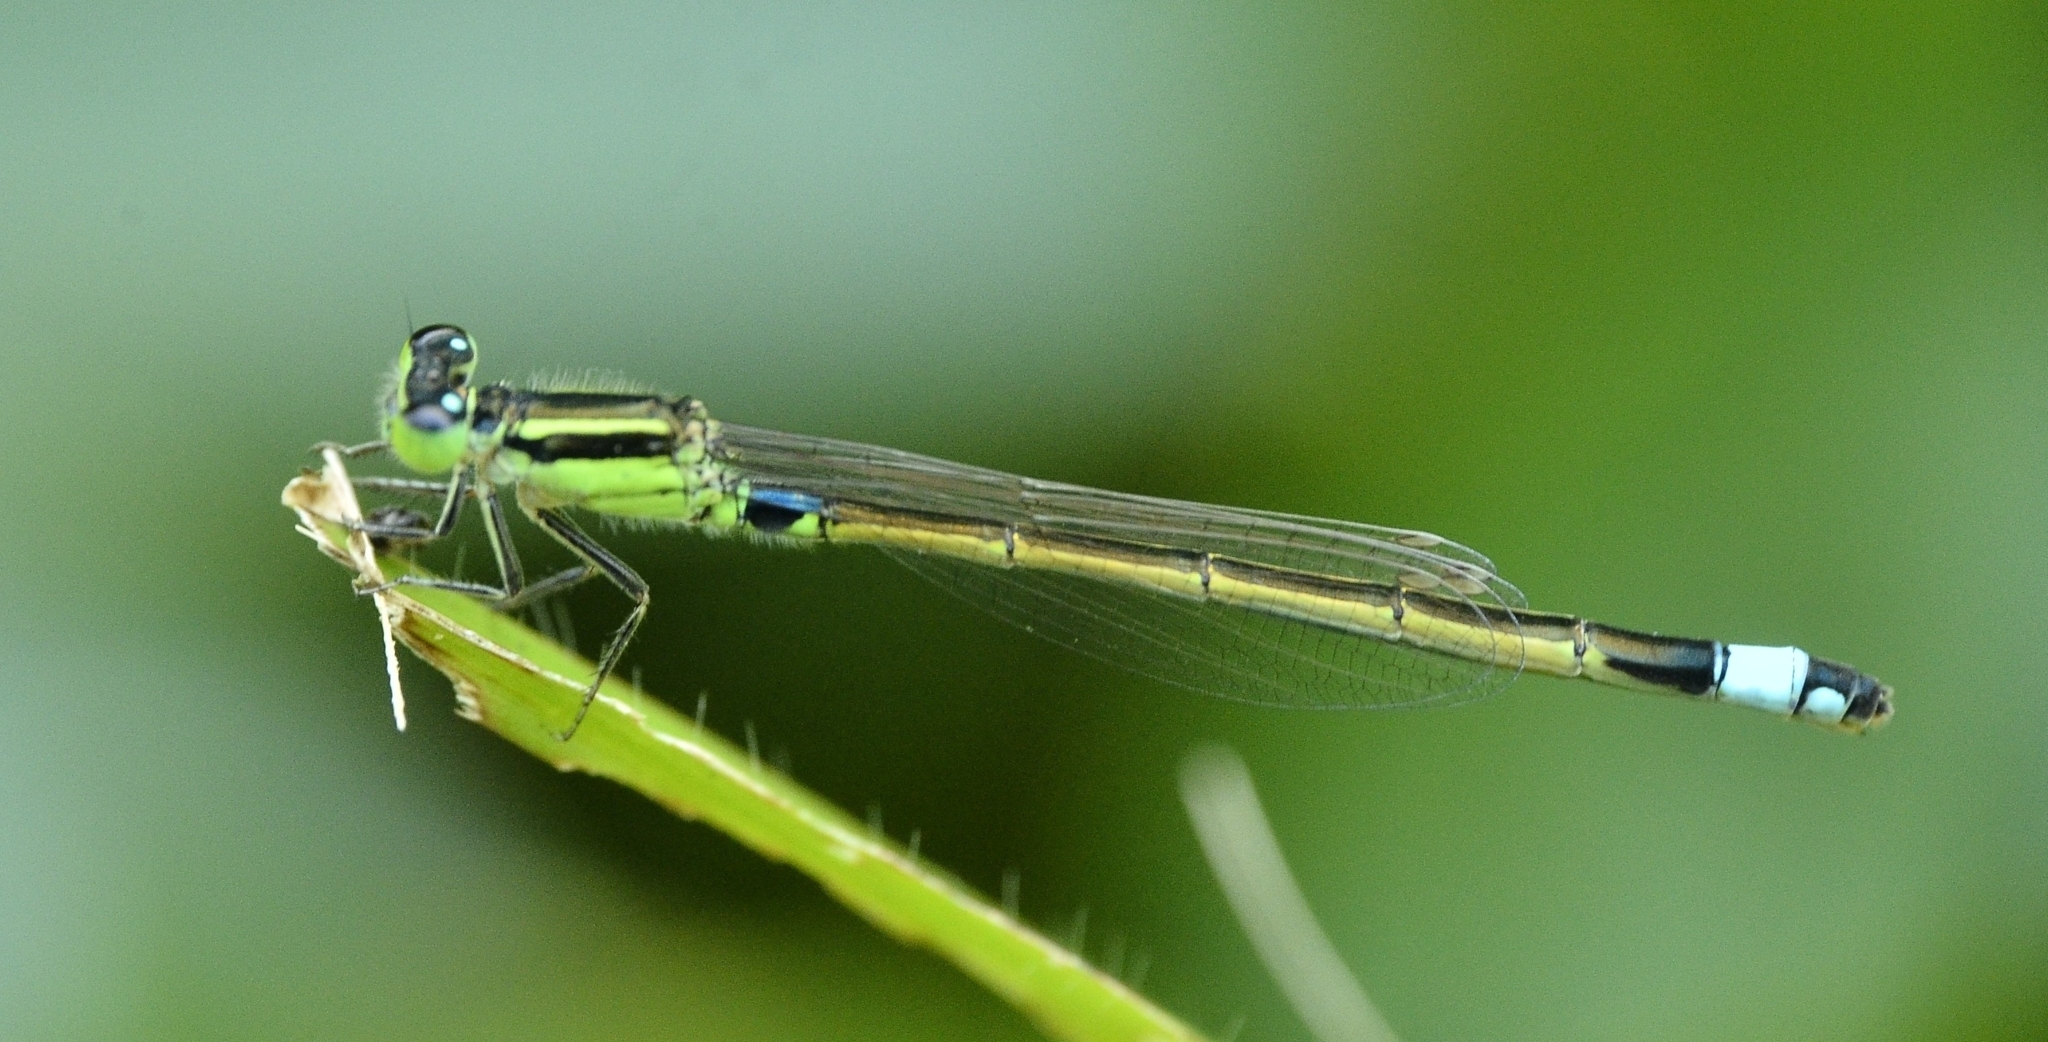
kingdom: Animalia
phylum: Arthropoda
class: Insecta
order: Odonata
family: Coenagrionidae
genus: Ischnura
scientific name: Ischnura senegalensis
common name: Tropical bluetail
